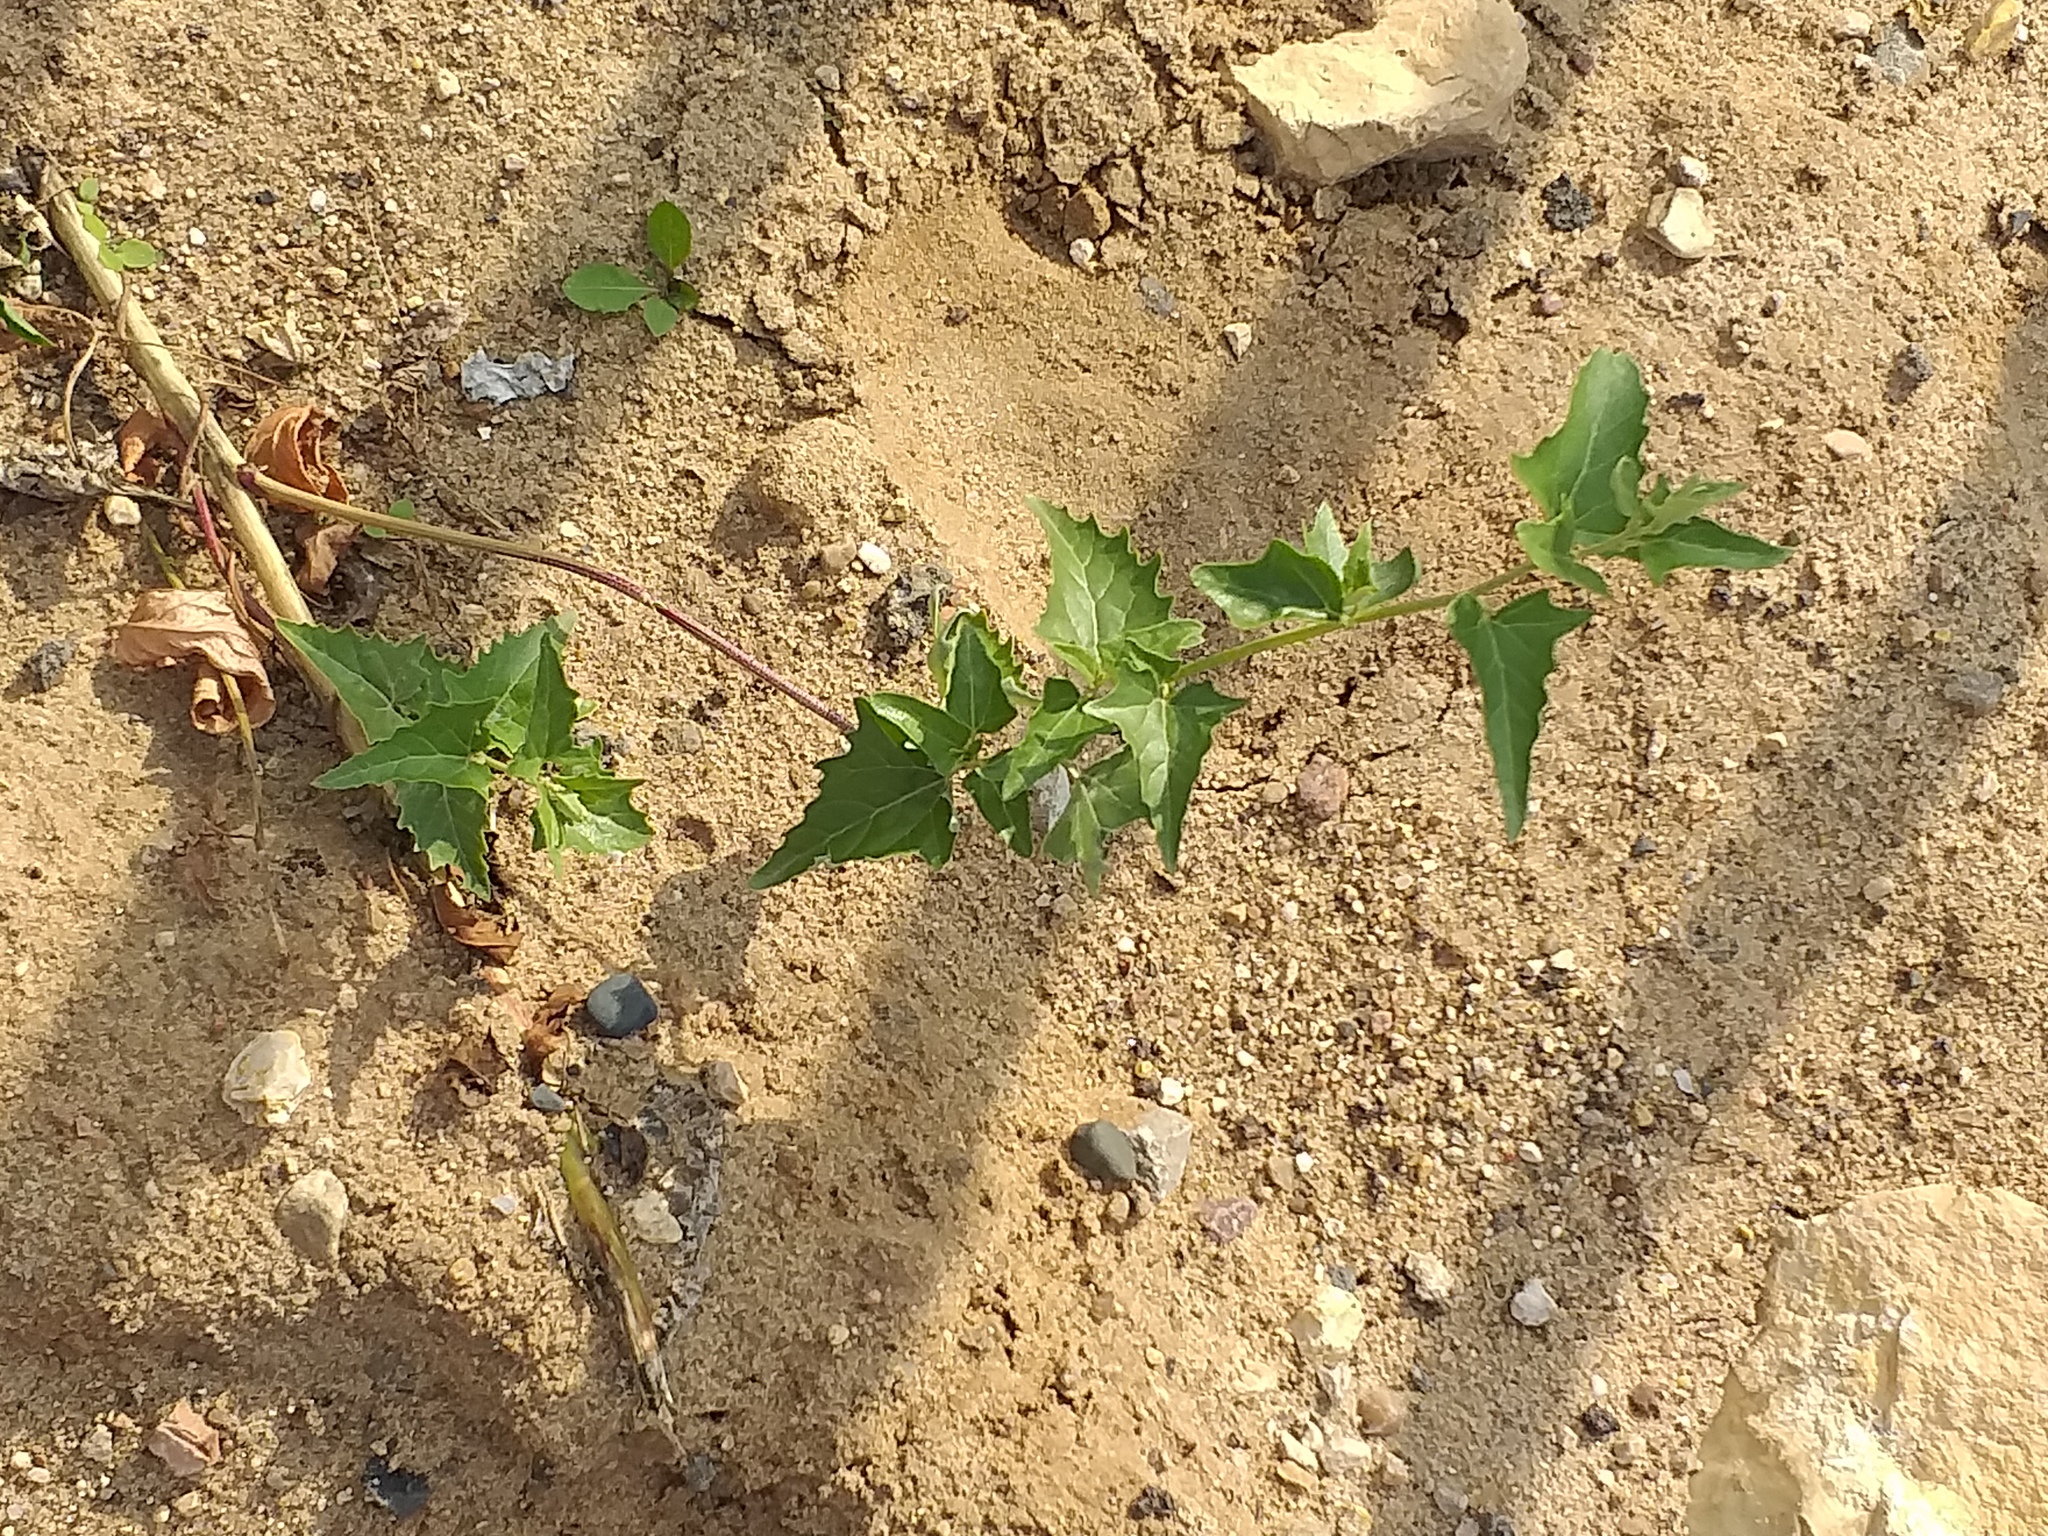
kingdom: Plantae
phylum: Tracheophyta
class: Magnoliopsida
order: Caryophyllales
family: Amaranthaceae
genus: Atriplex
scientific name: Atriplex sagittata
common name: Purple orache
